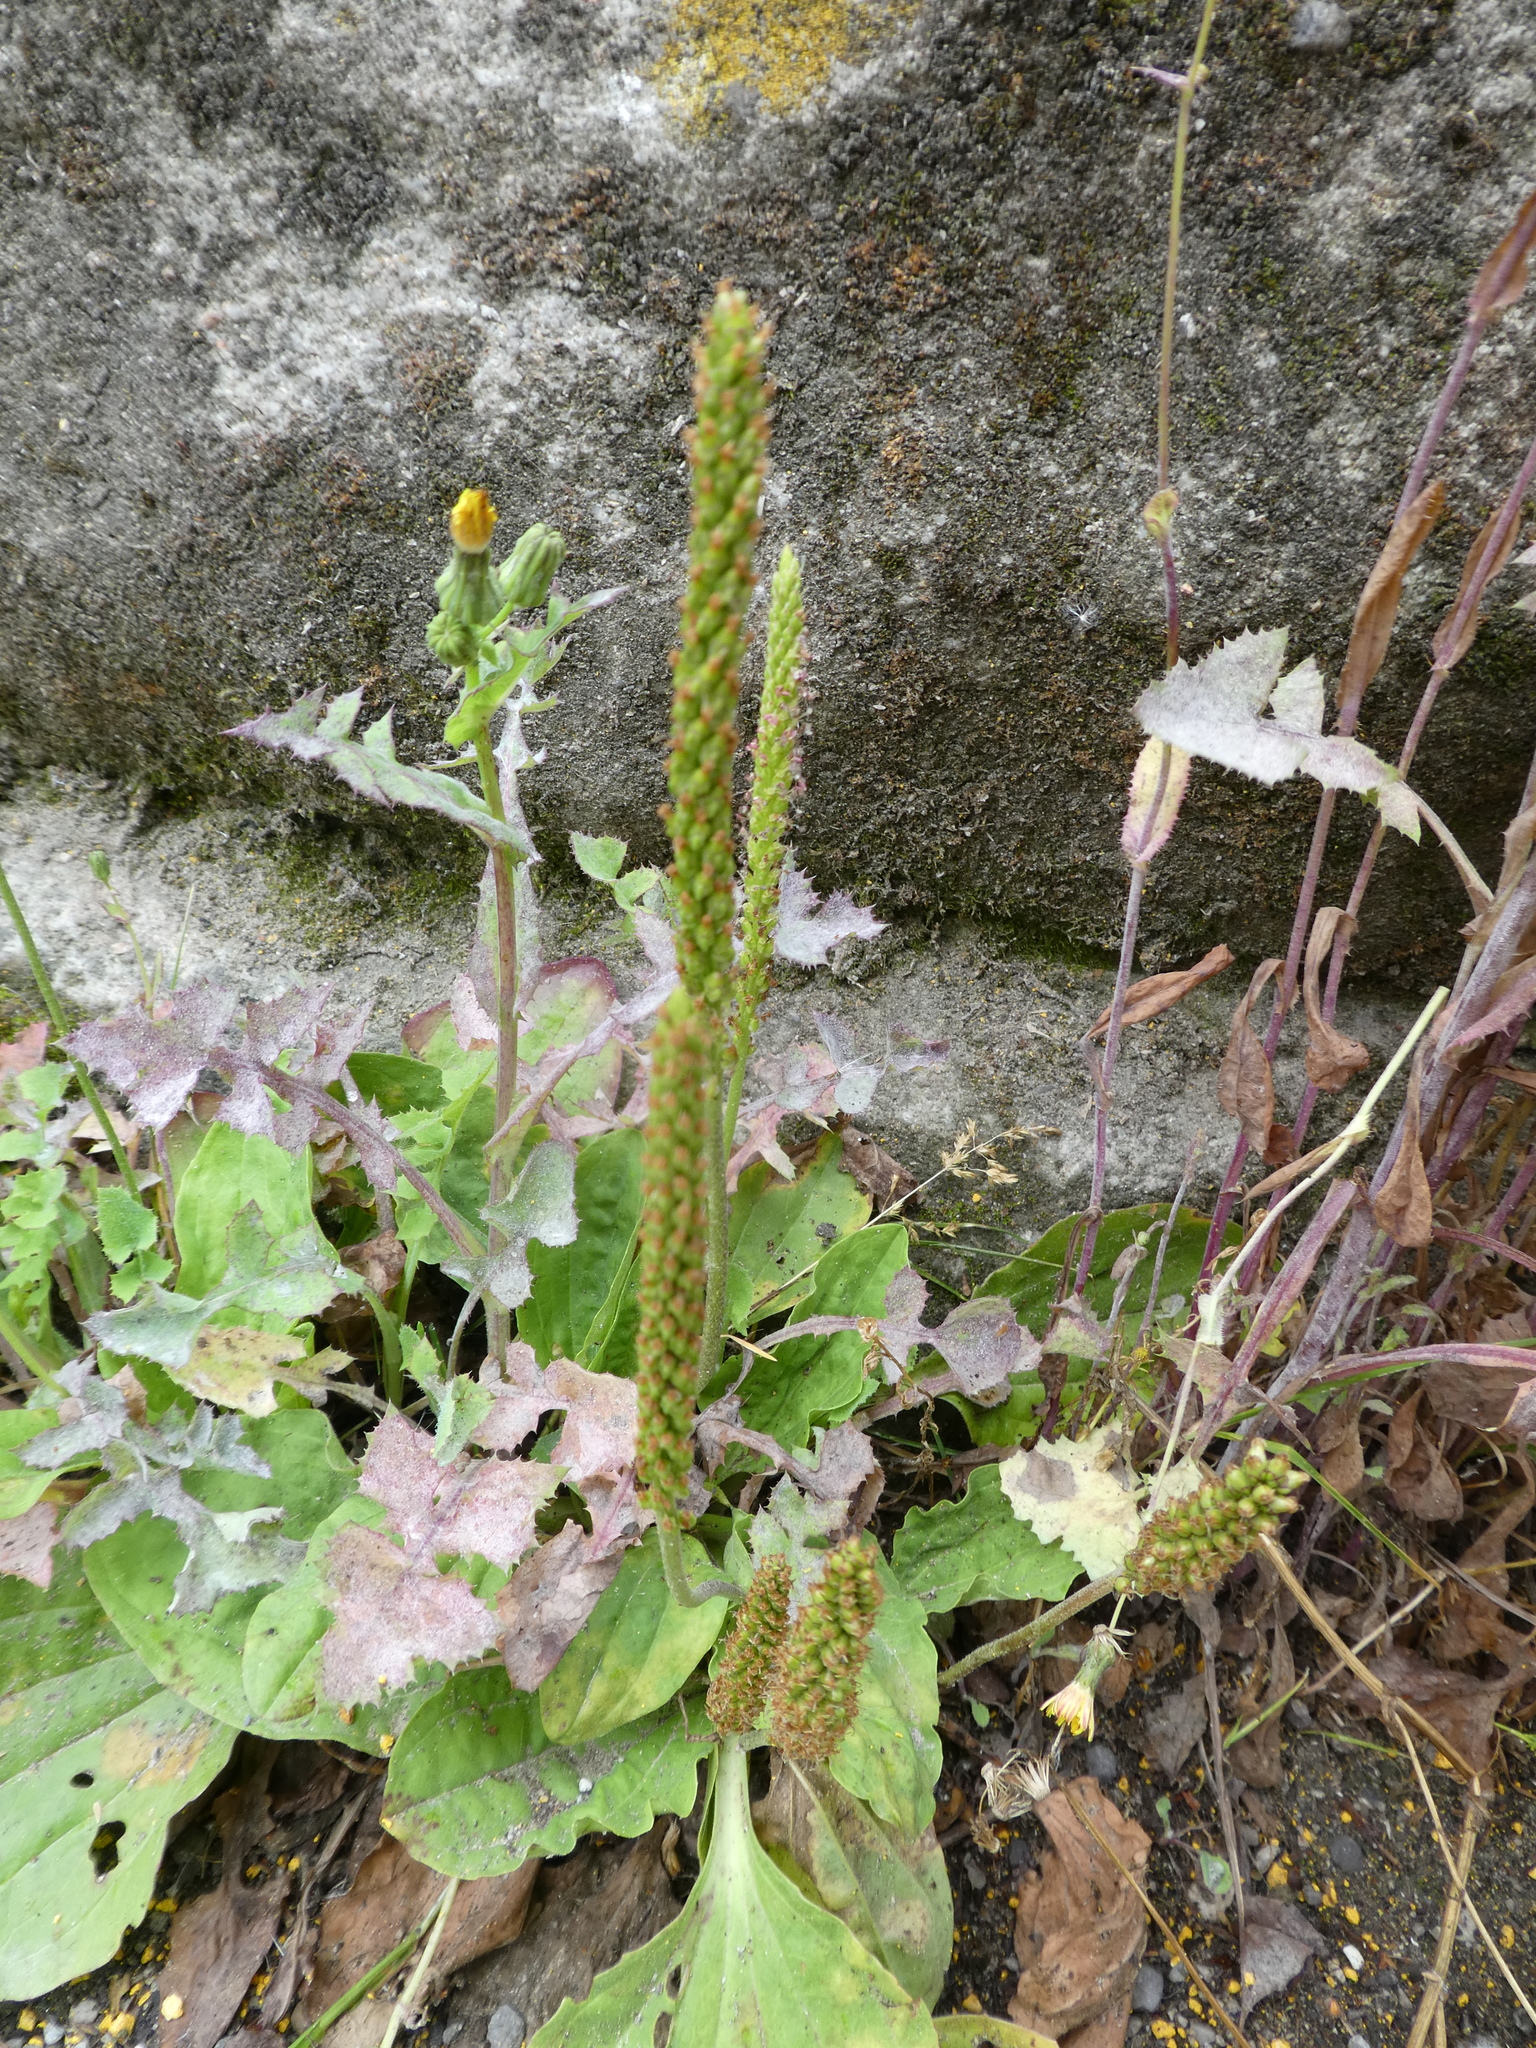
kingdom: Plantae
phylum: Tracheophyta
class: Magnoliopsida
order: Lamiales
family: Plantaginaceae
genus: Plantago
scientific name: Plantago major
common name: Common plantain
